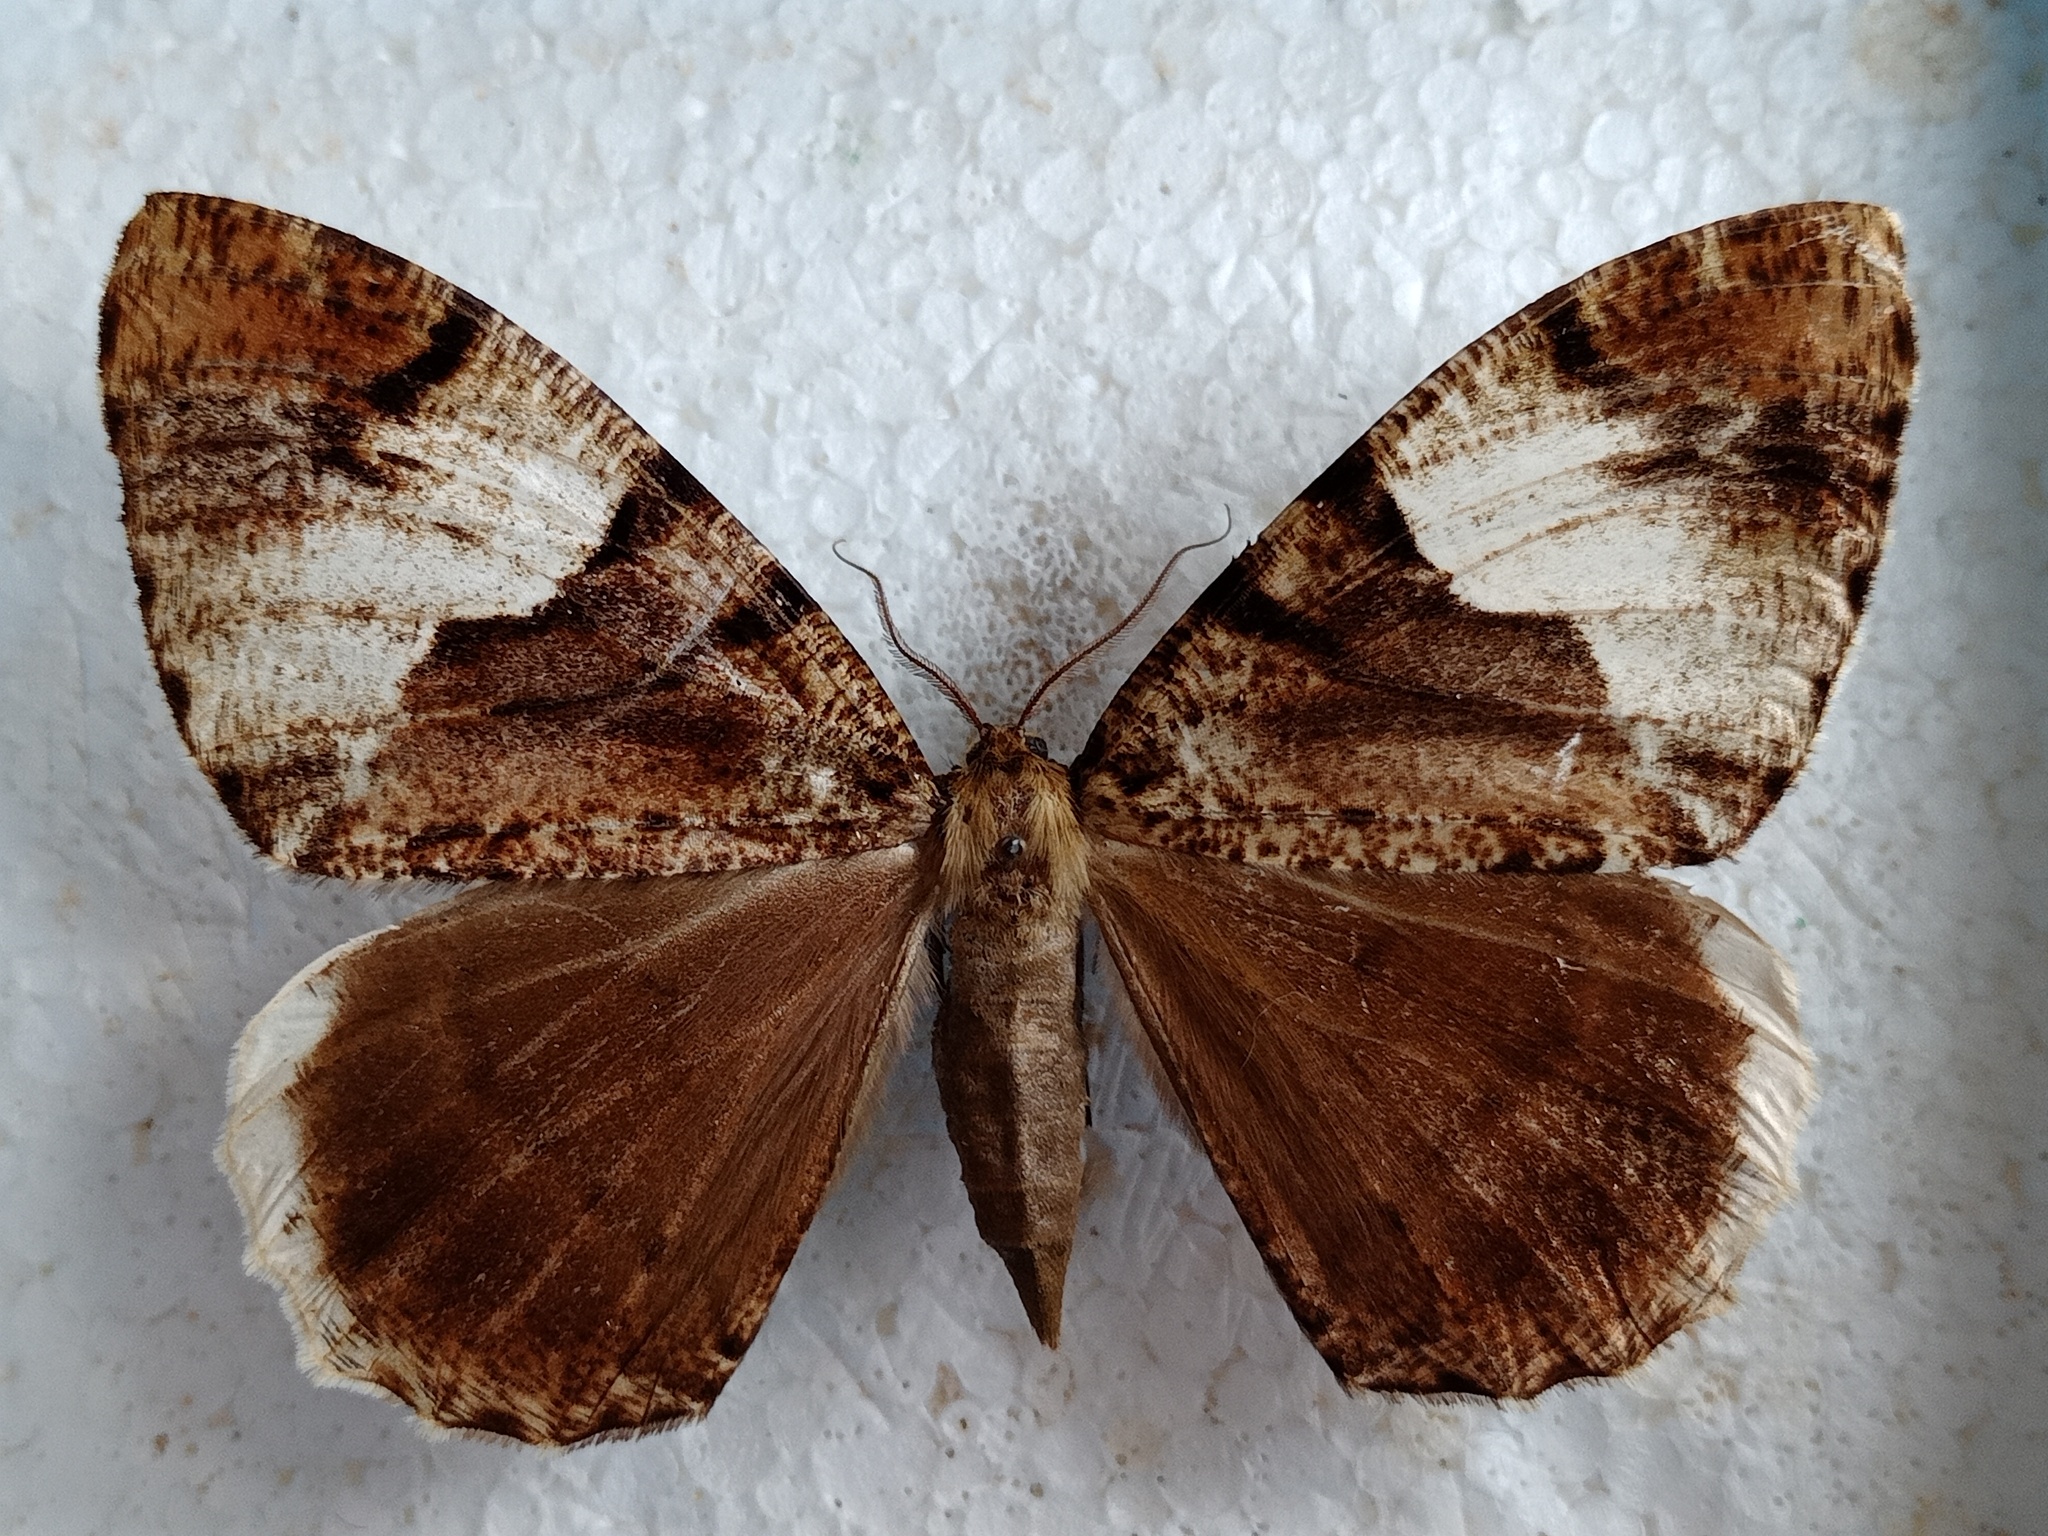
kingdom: Animalia
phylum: Arthropoda
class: Insecta
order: Lepidoptera
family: Geometridae
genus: Xandrames
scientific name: Xandrames dholaria
